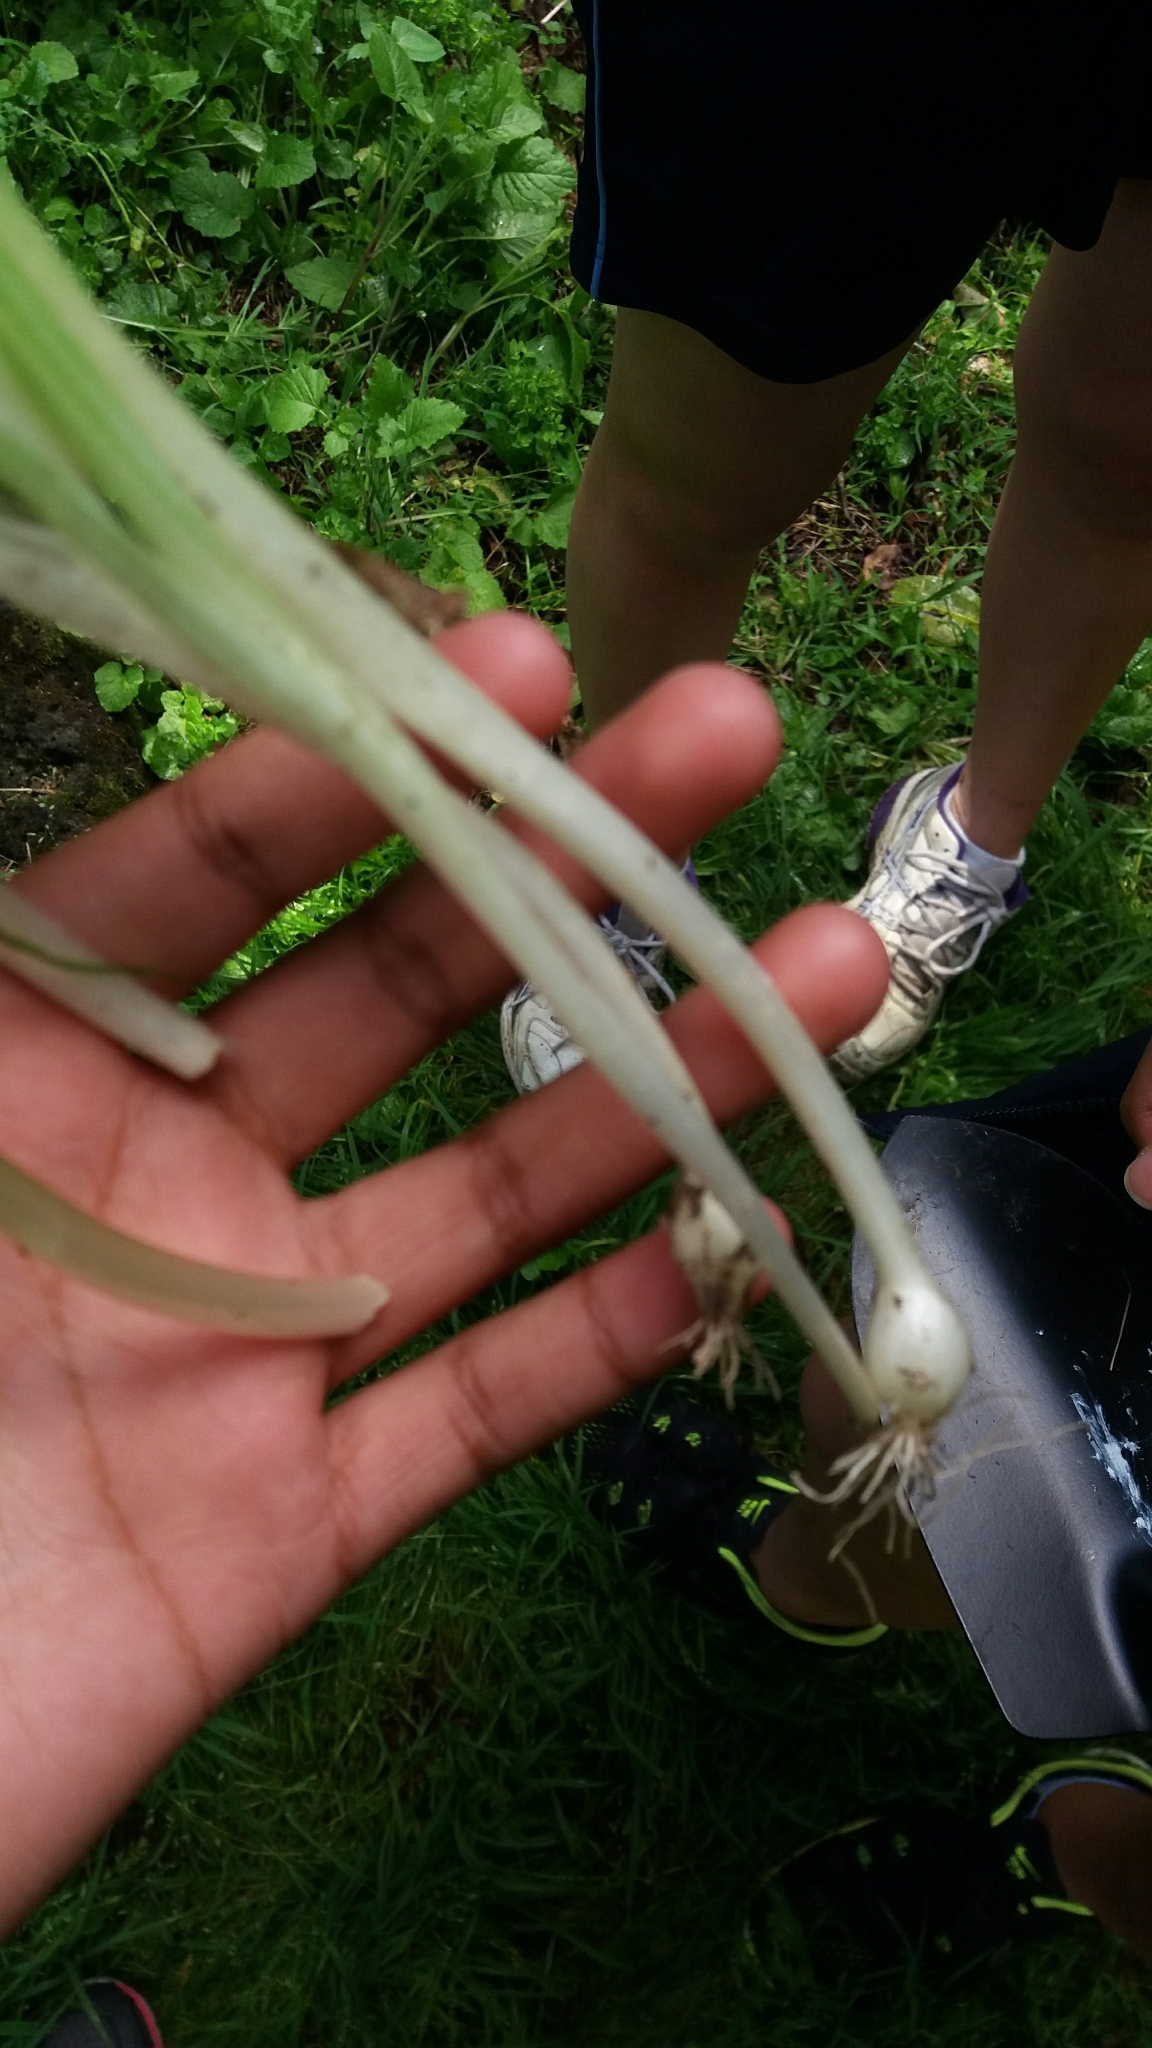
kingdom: Plantae
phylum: Tracheophyta
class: Liliopsida
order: Asparagales
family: Amaryllidaceae
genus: Allium
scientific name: Allium triquetrum
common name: Three-cornered garlic
